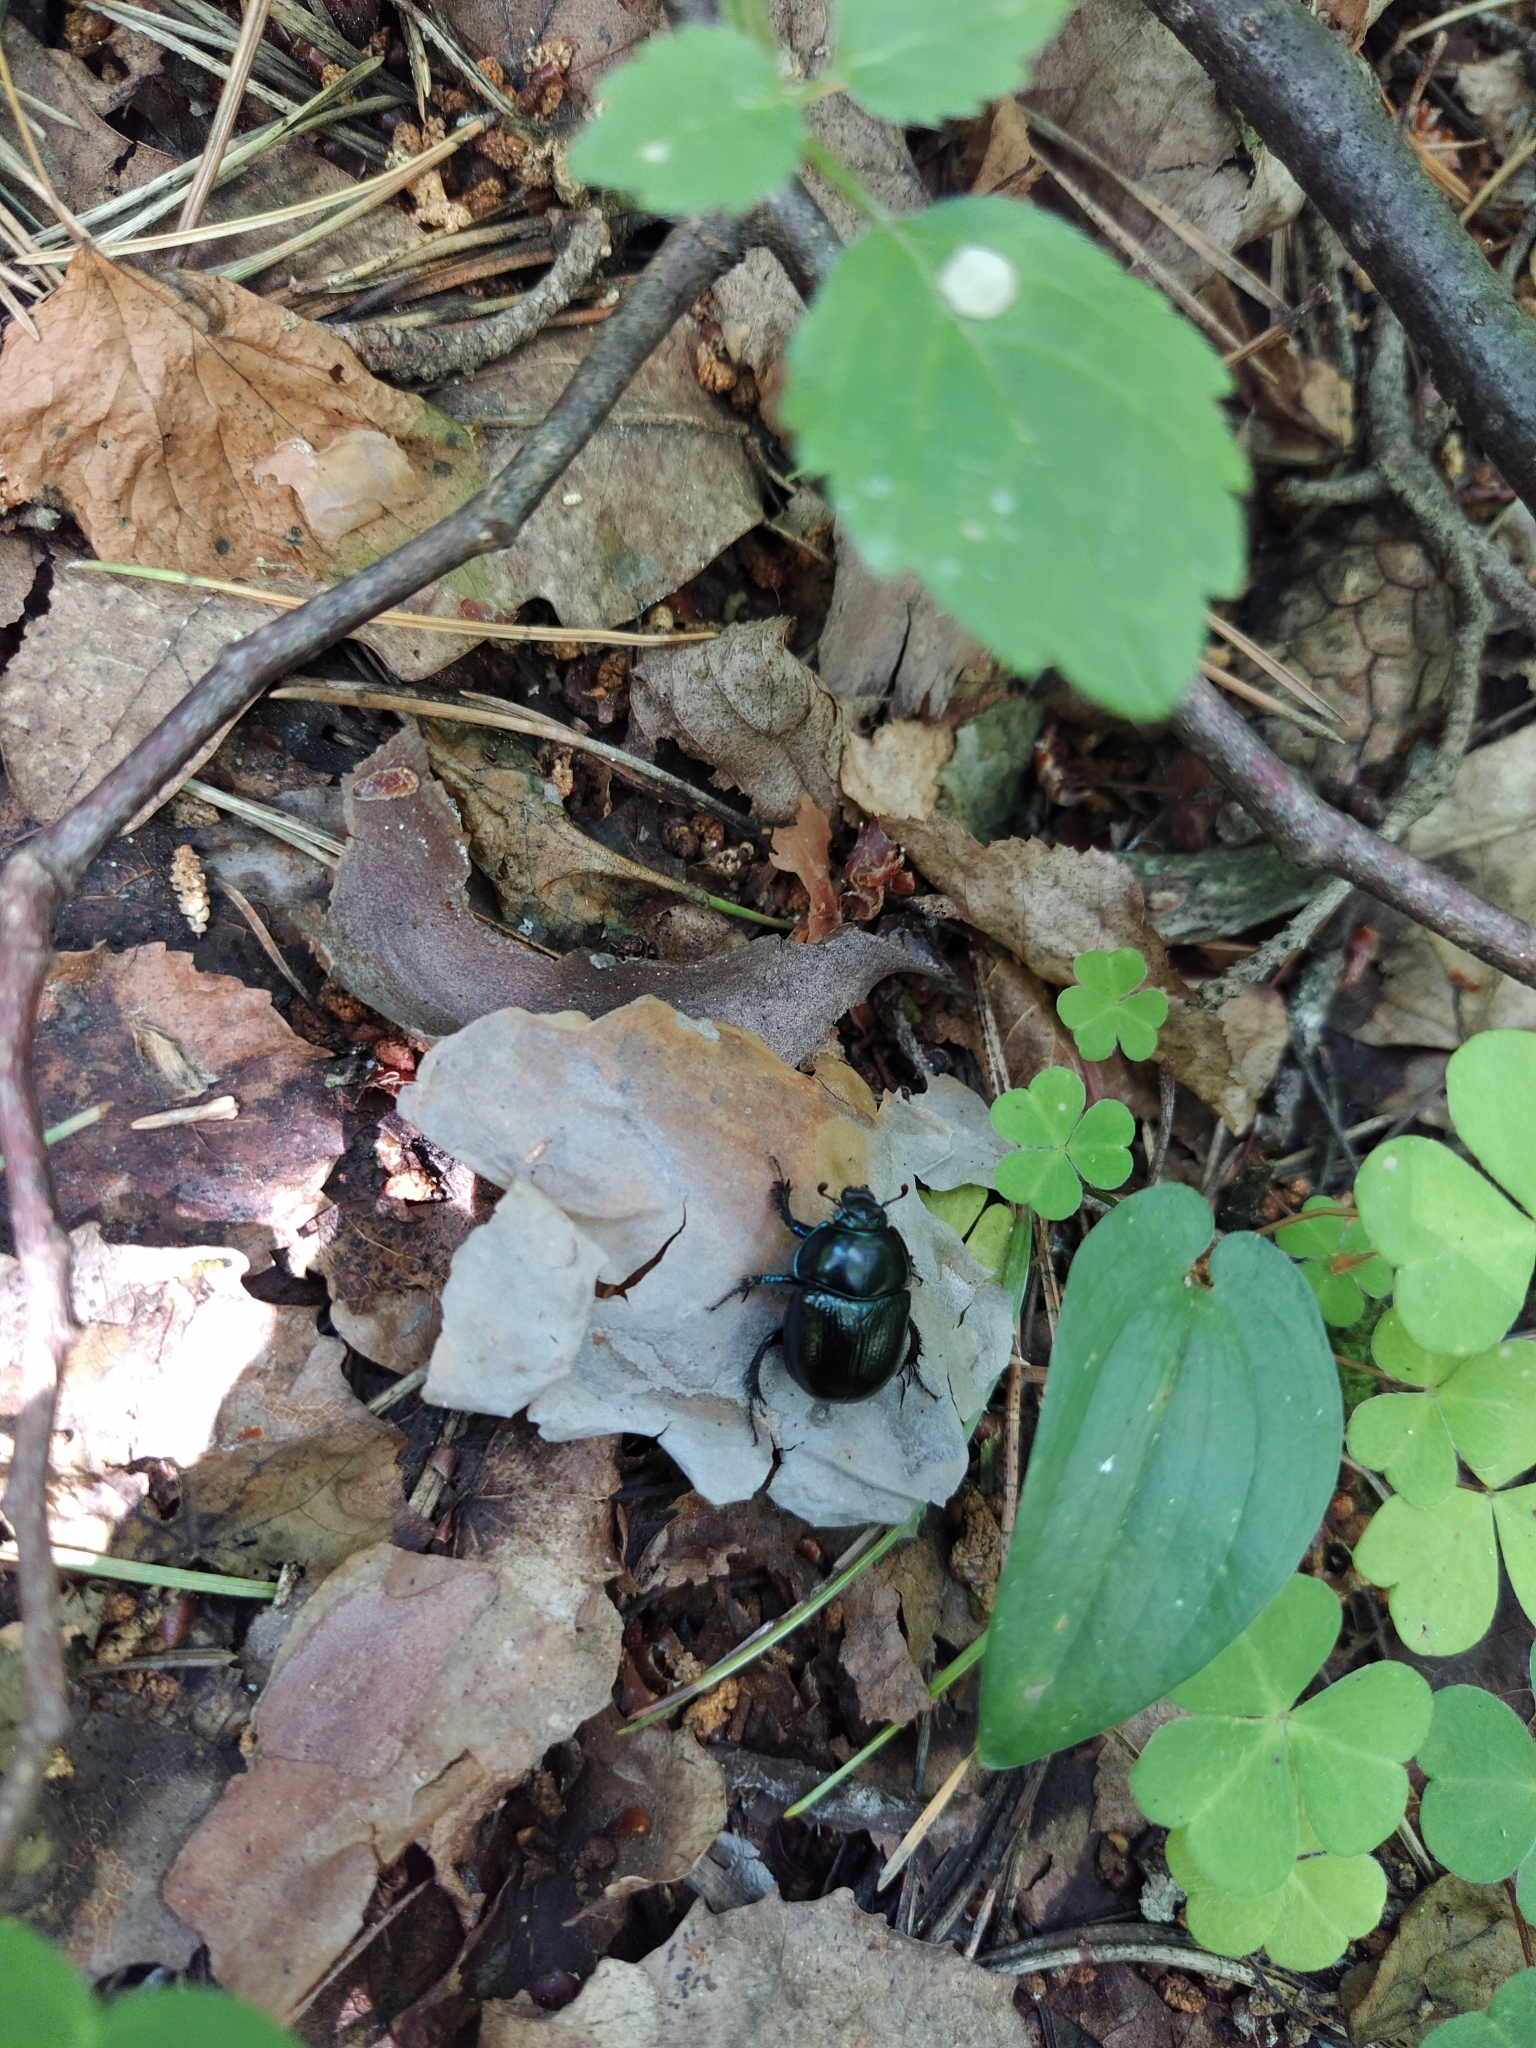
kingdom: Animalia
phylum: Arthropoda
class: Insecta
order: Coleoptera
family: Geotrupidae
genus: Anoplotrupes
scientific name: Anoplotrupes stercorosus
